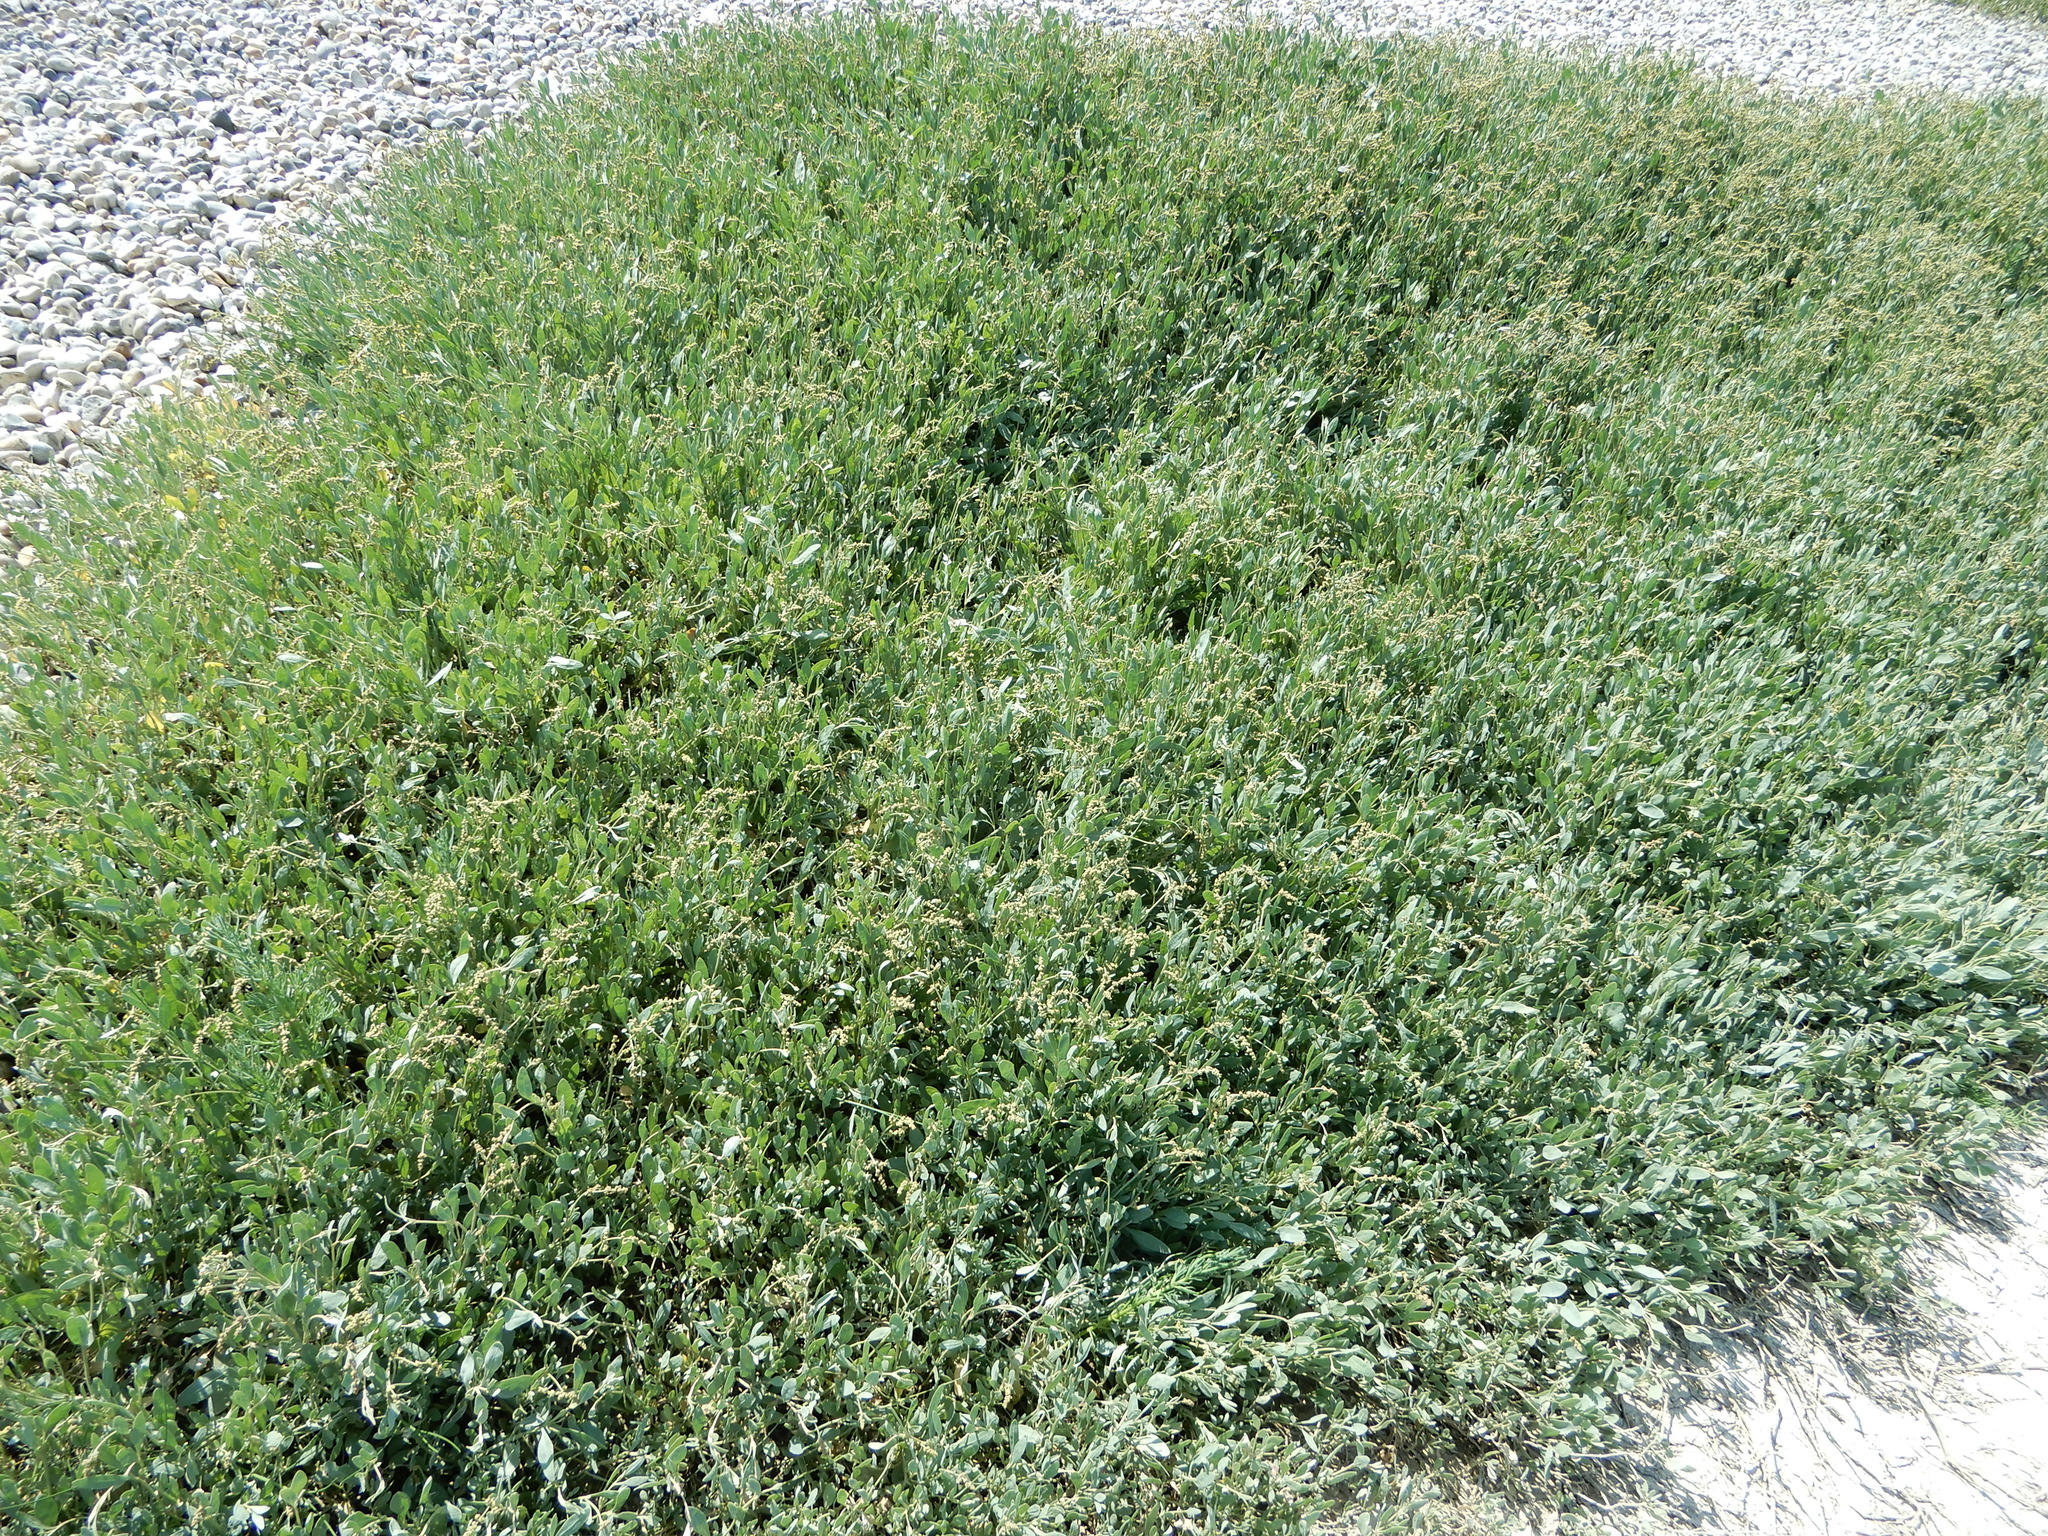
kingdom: Plantae
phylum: Tracheophyta
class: Magnoliopsida
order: Caryophyllales
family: Amaranthaceae
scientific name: Amaranthaceae
